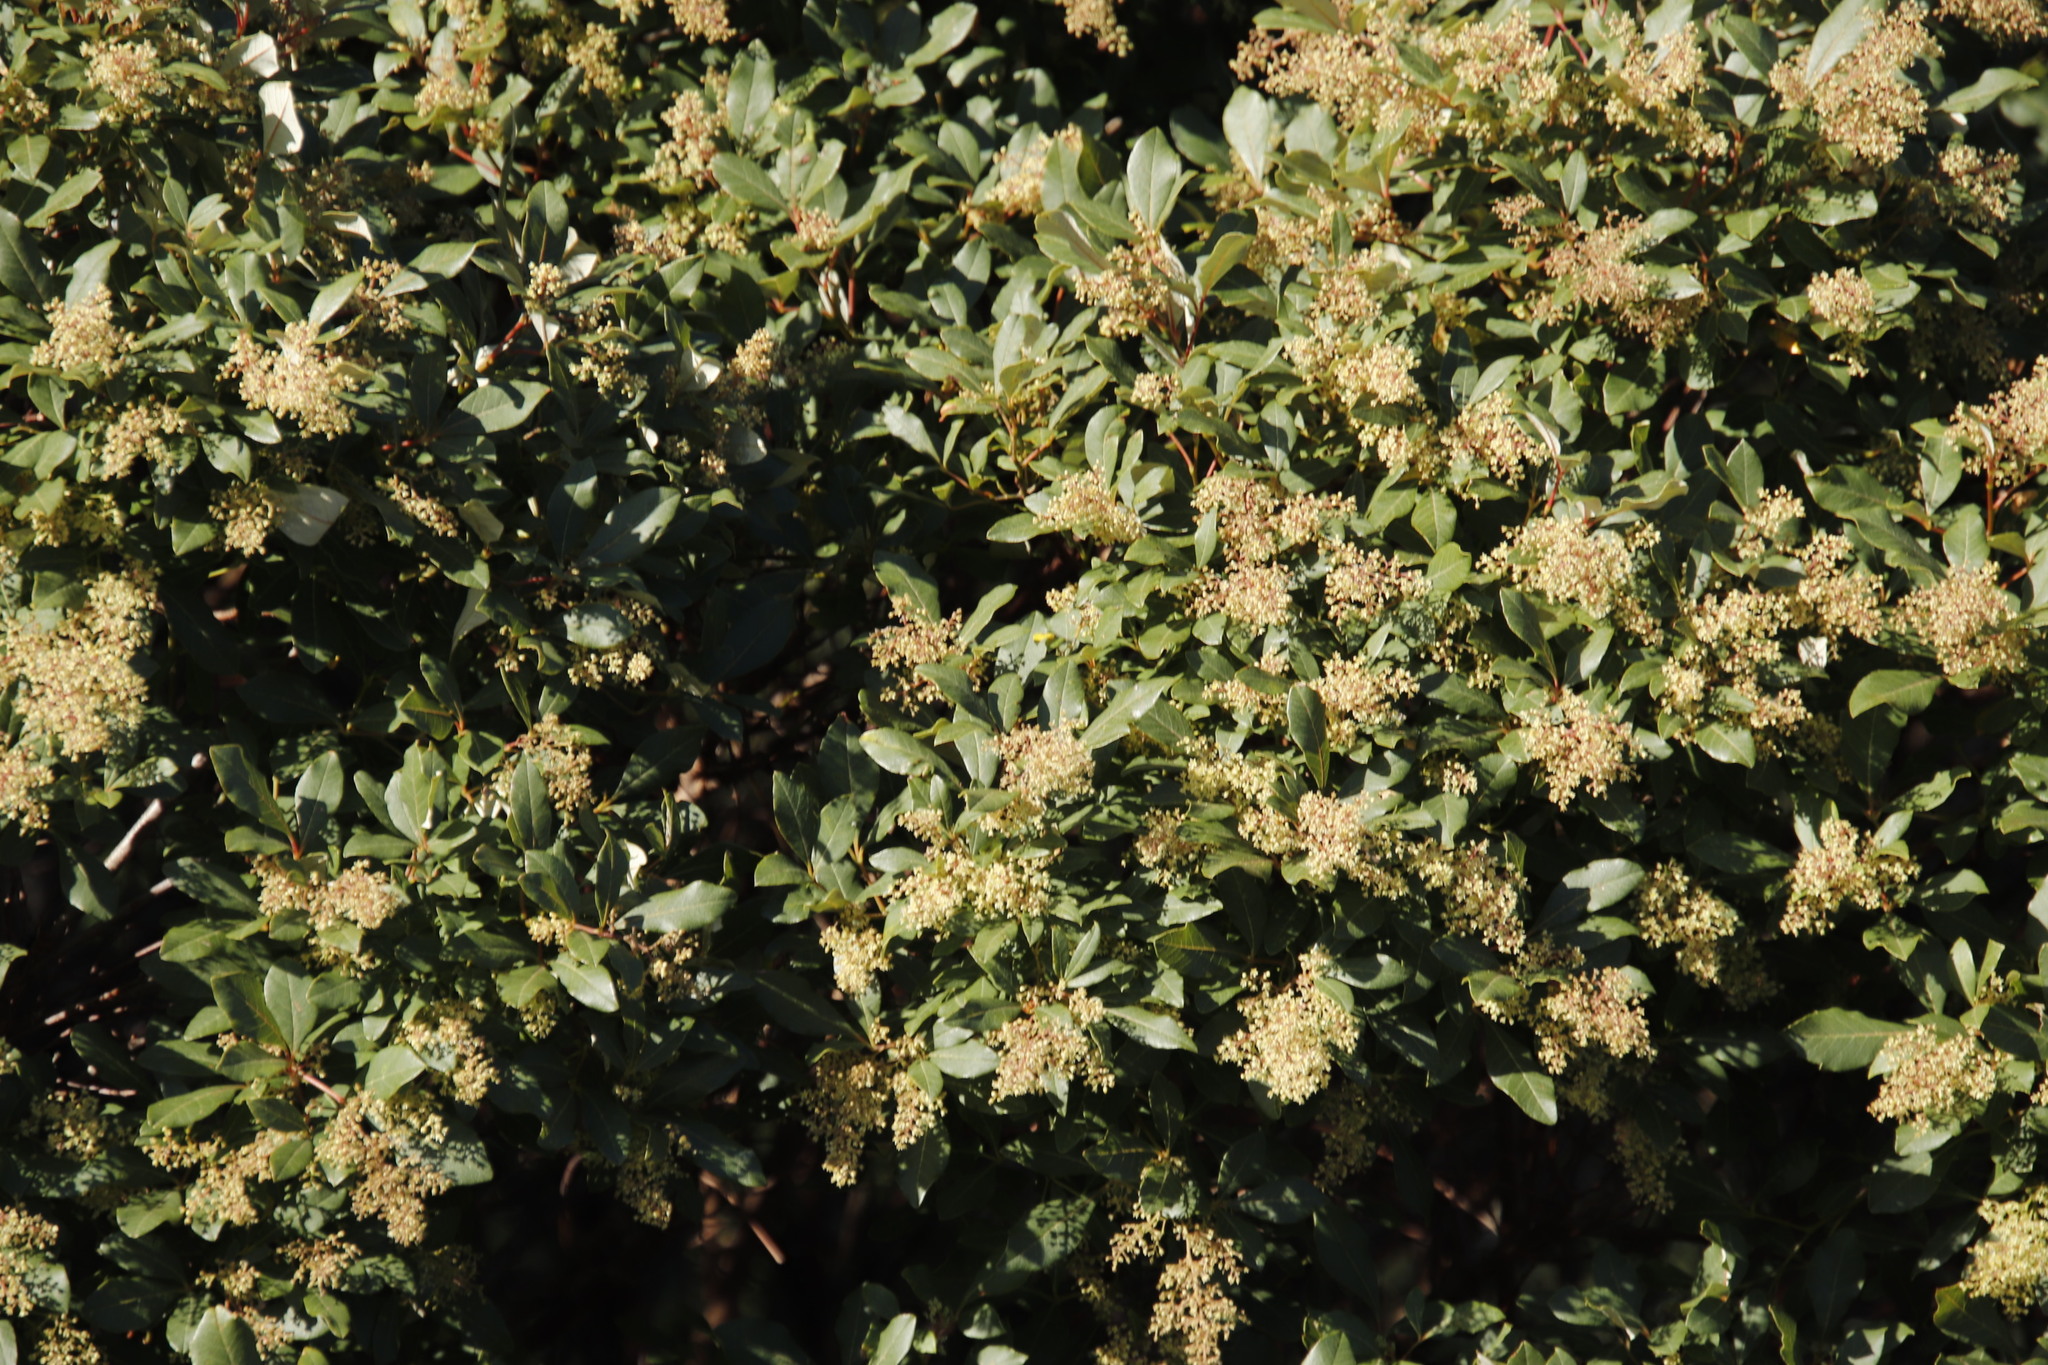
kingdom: Plantae
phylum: Tracheophyta
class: Magnoliopsida
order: Sapindales
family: Anacardiaceae
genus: Searsia
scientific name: Searsia tomentosa
